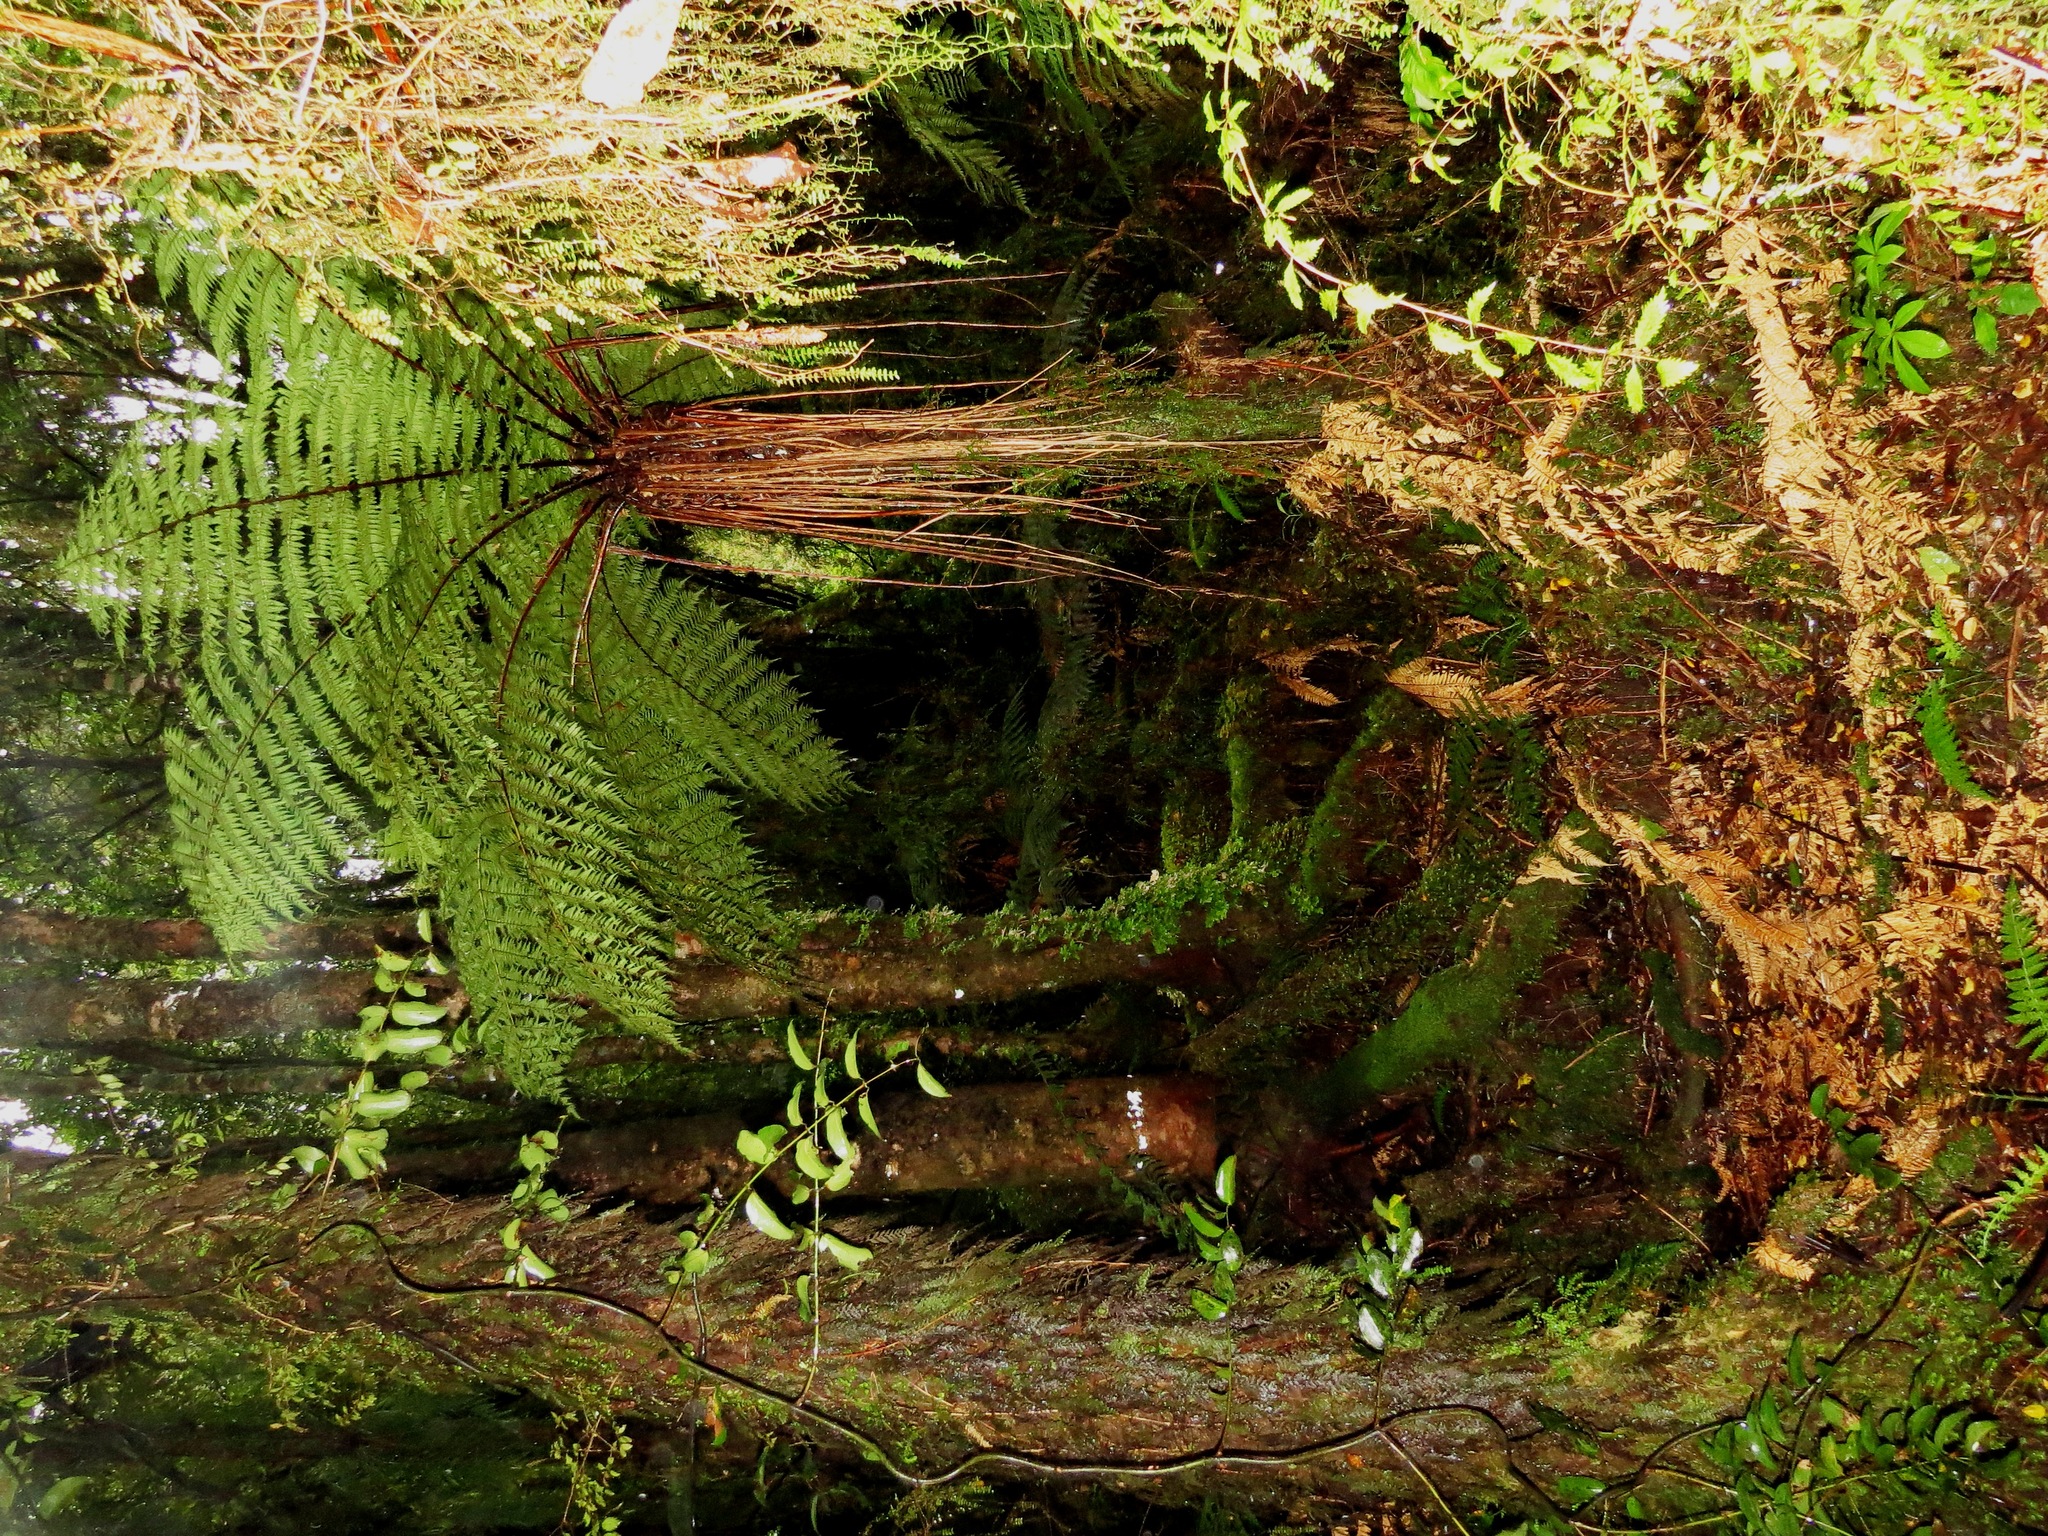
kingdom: Plantae
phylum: Tracheophyta
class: Polypodiopsida
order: Cyatheales
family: Cyatheaceae
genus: Alsophila
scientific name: Alsophila smithii
